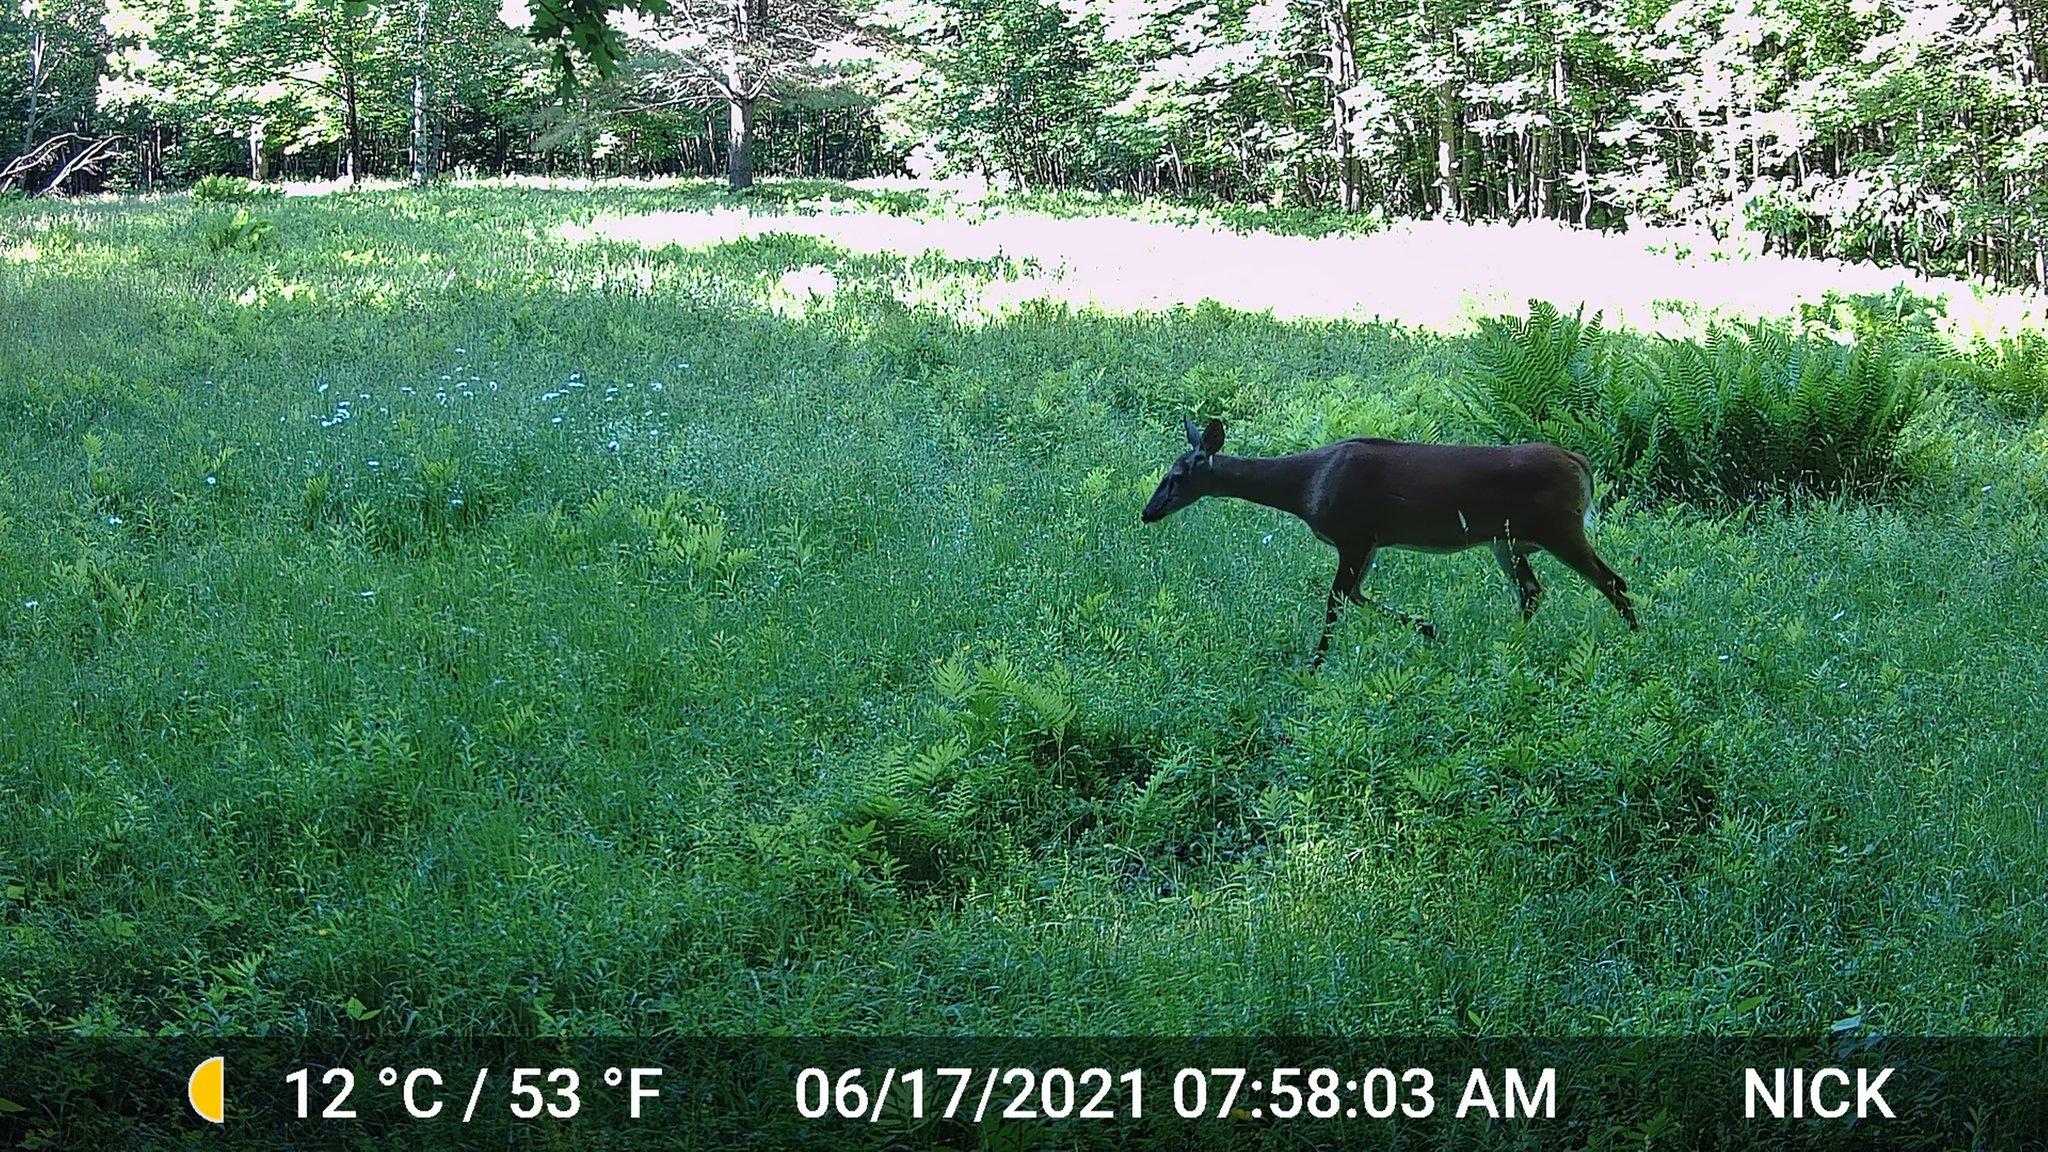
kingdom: Animalia
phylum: Chordata
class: Mammalia
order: Artiodactyla
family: Cervidae
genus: Odocoileus
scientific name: Odocoileus virginianus
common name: White-tailed deer
